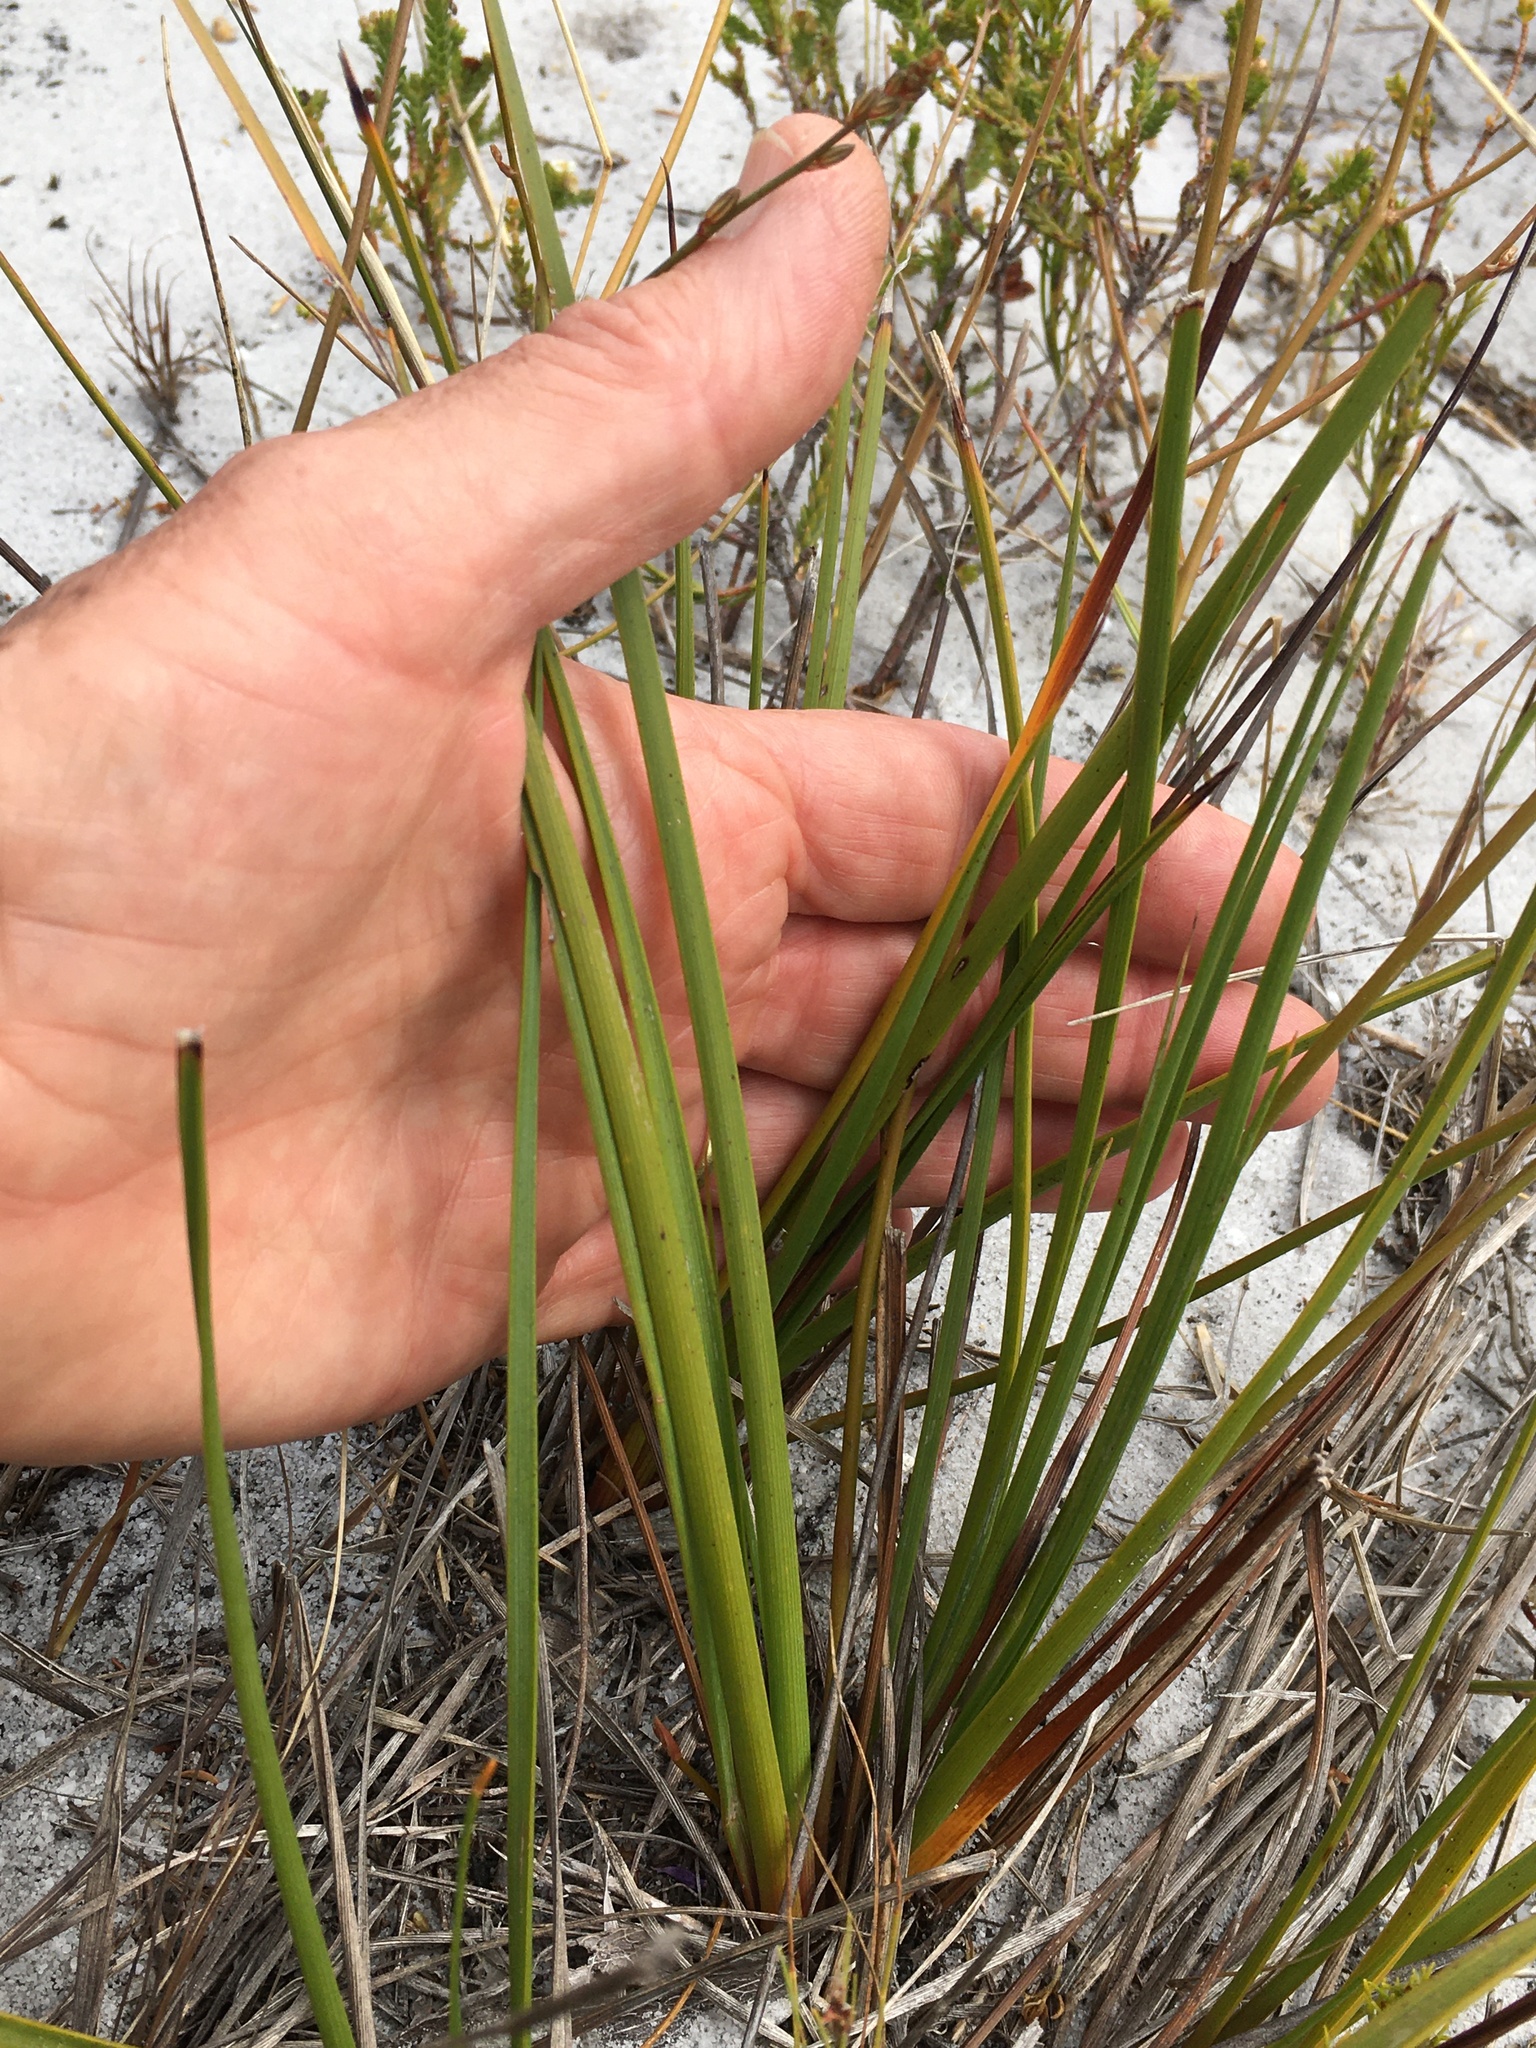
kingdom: Plantae
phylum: Tracheophyta
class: Liliopsida
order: Asparagales
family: Asparagaceae
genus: Drimia
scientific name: Drimia media
